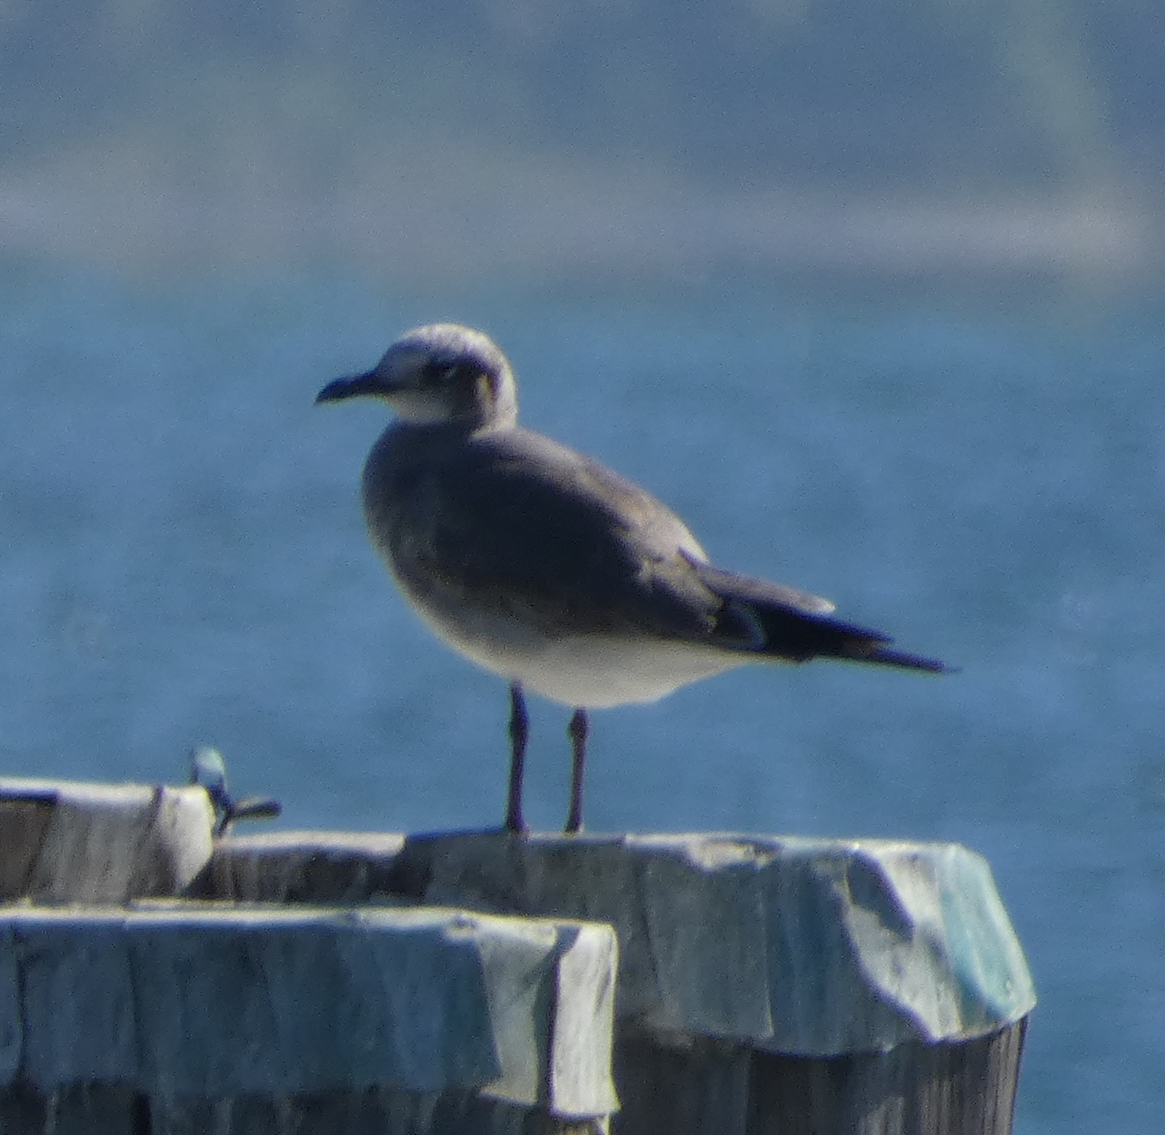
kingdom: Animalia
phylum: Chordata
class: Aves
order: Charadriiformes
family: Laridae
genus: Leucophaeus
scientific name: Leucophaeus atricilla
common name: Laughing gull
